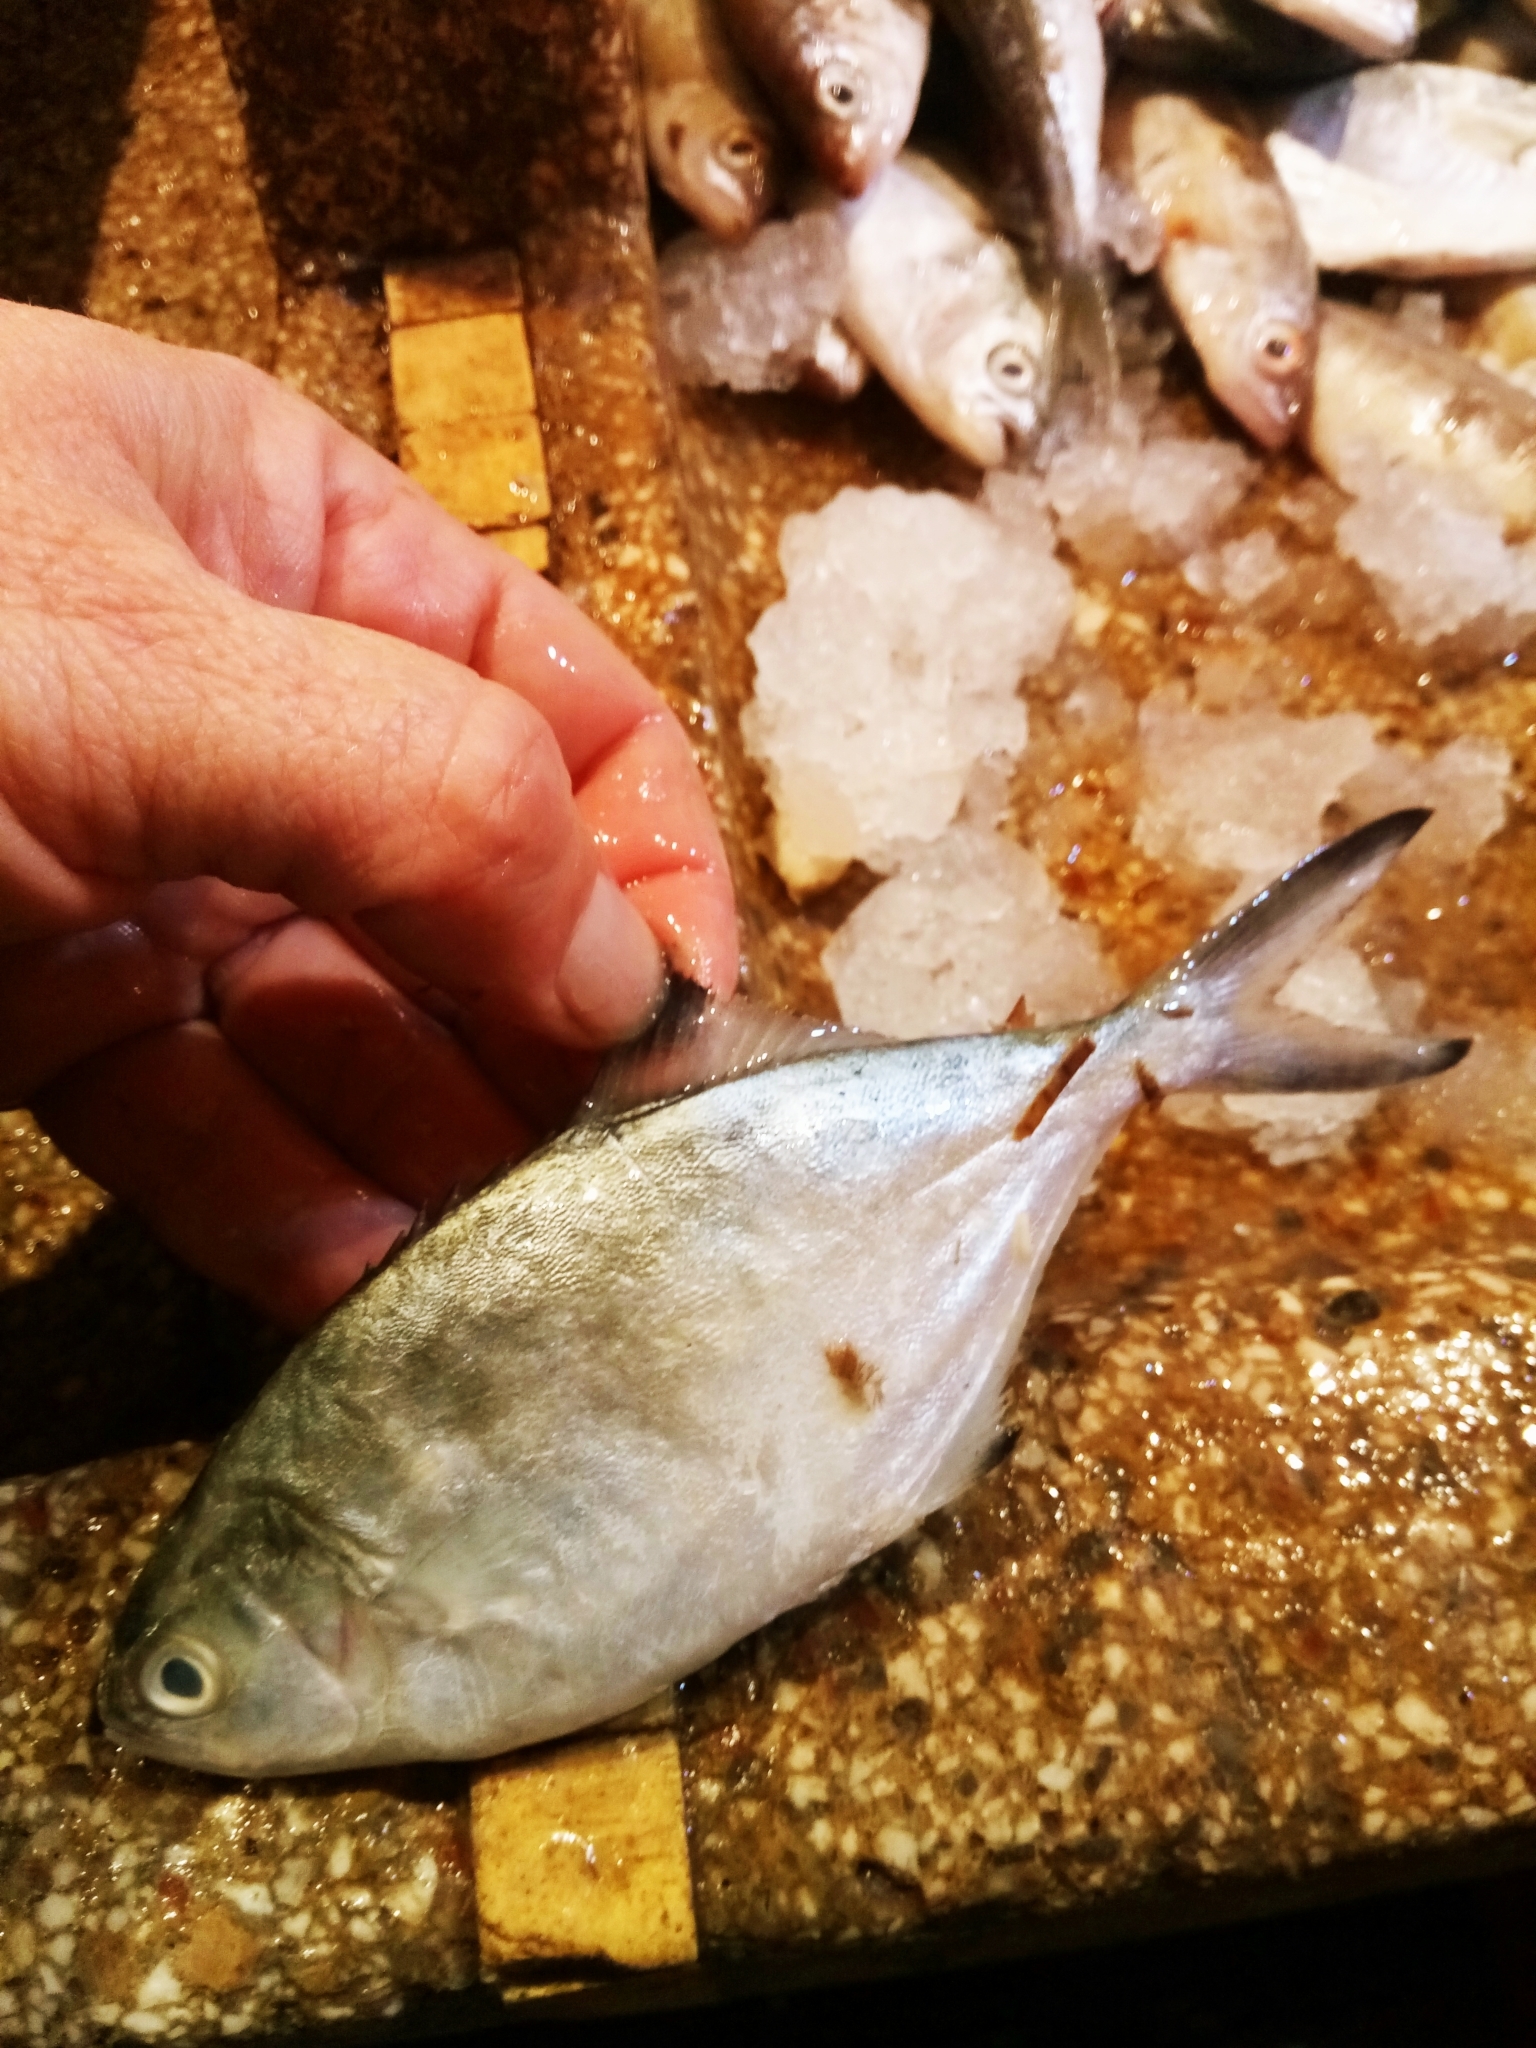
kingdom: Animalia
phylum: Chordata
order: Perciformes
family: Carangidae
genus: Trachinotus
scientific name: Trachinotus ovatus
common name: Pompano
